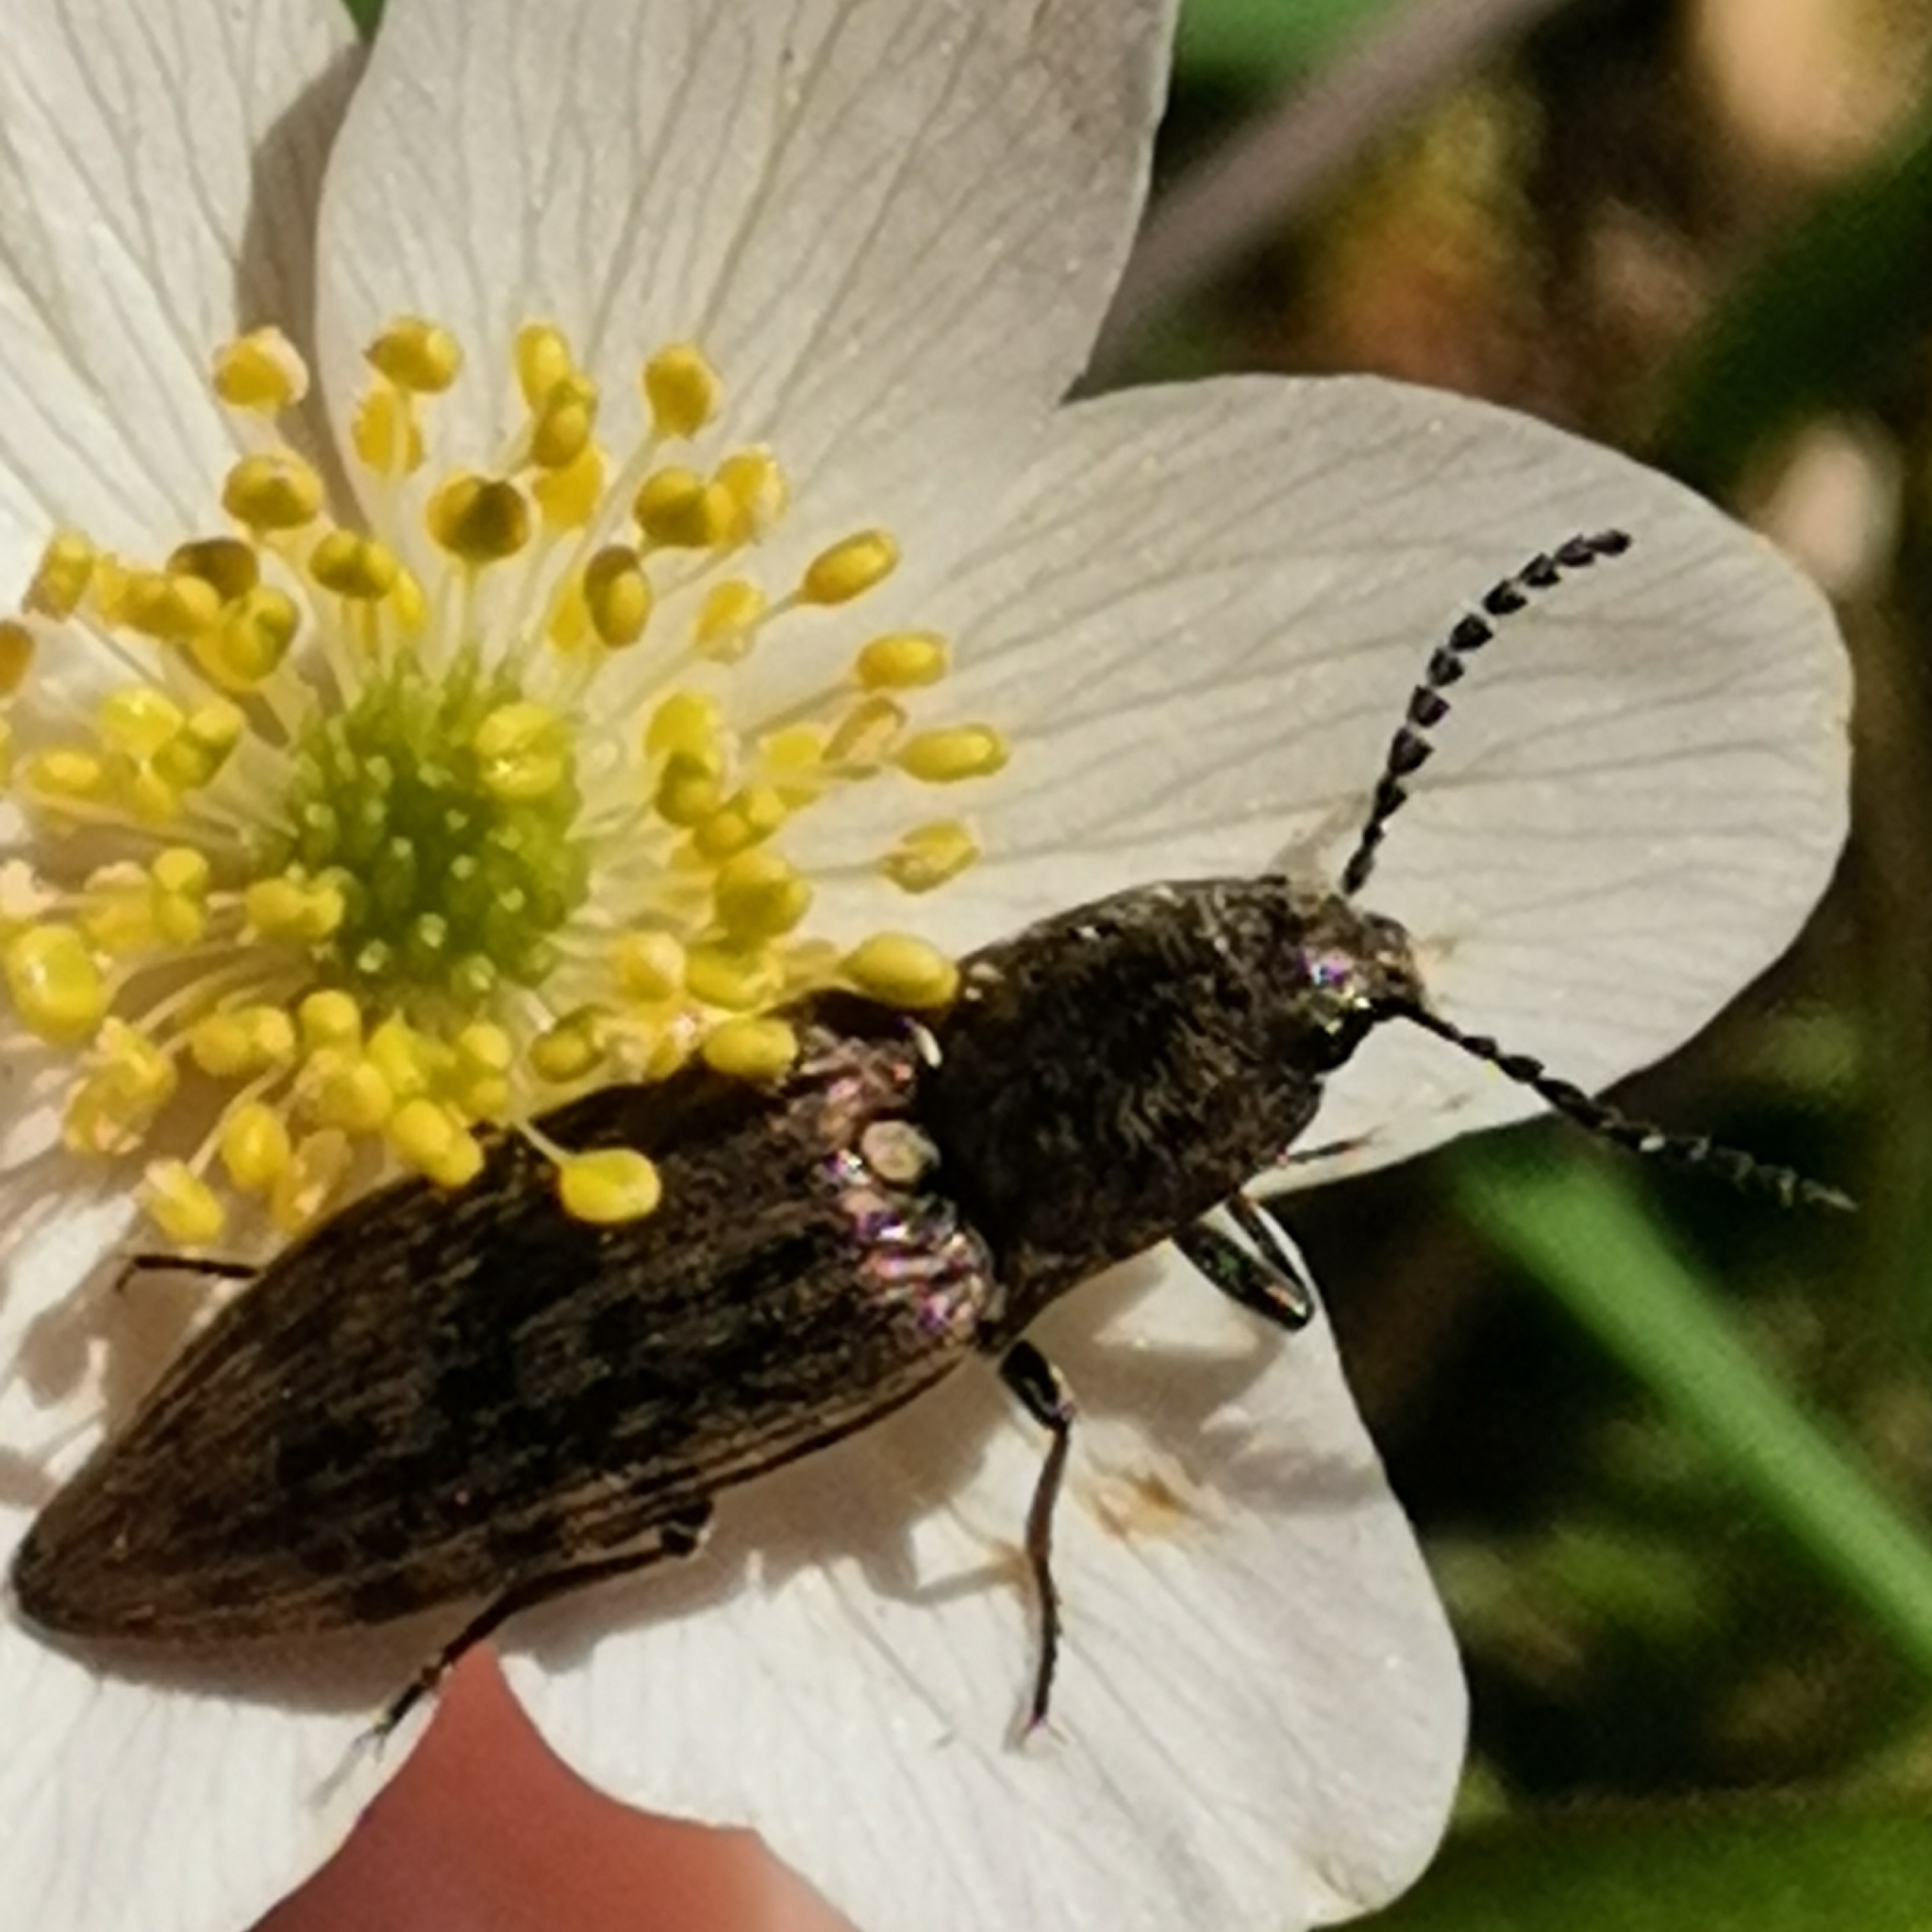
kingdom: Animalia
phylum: Arthropoda
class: Insecta
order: Coleoptera
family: Elateridae
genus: Actenicerus
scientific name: Actenicerus sjaelandicus
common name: Marsh click beetle
